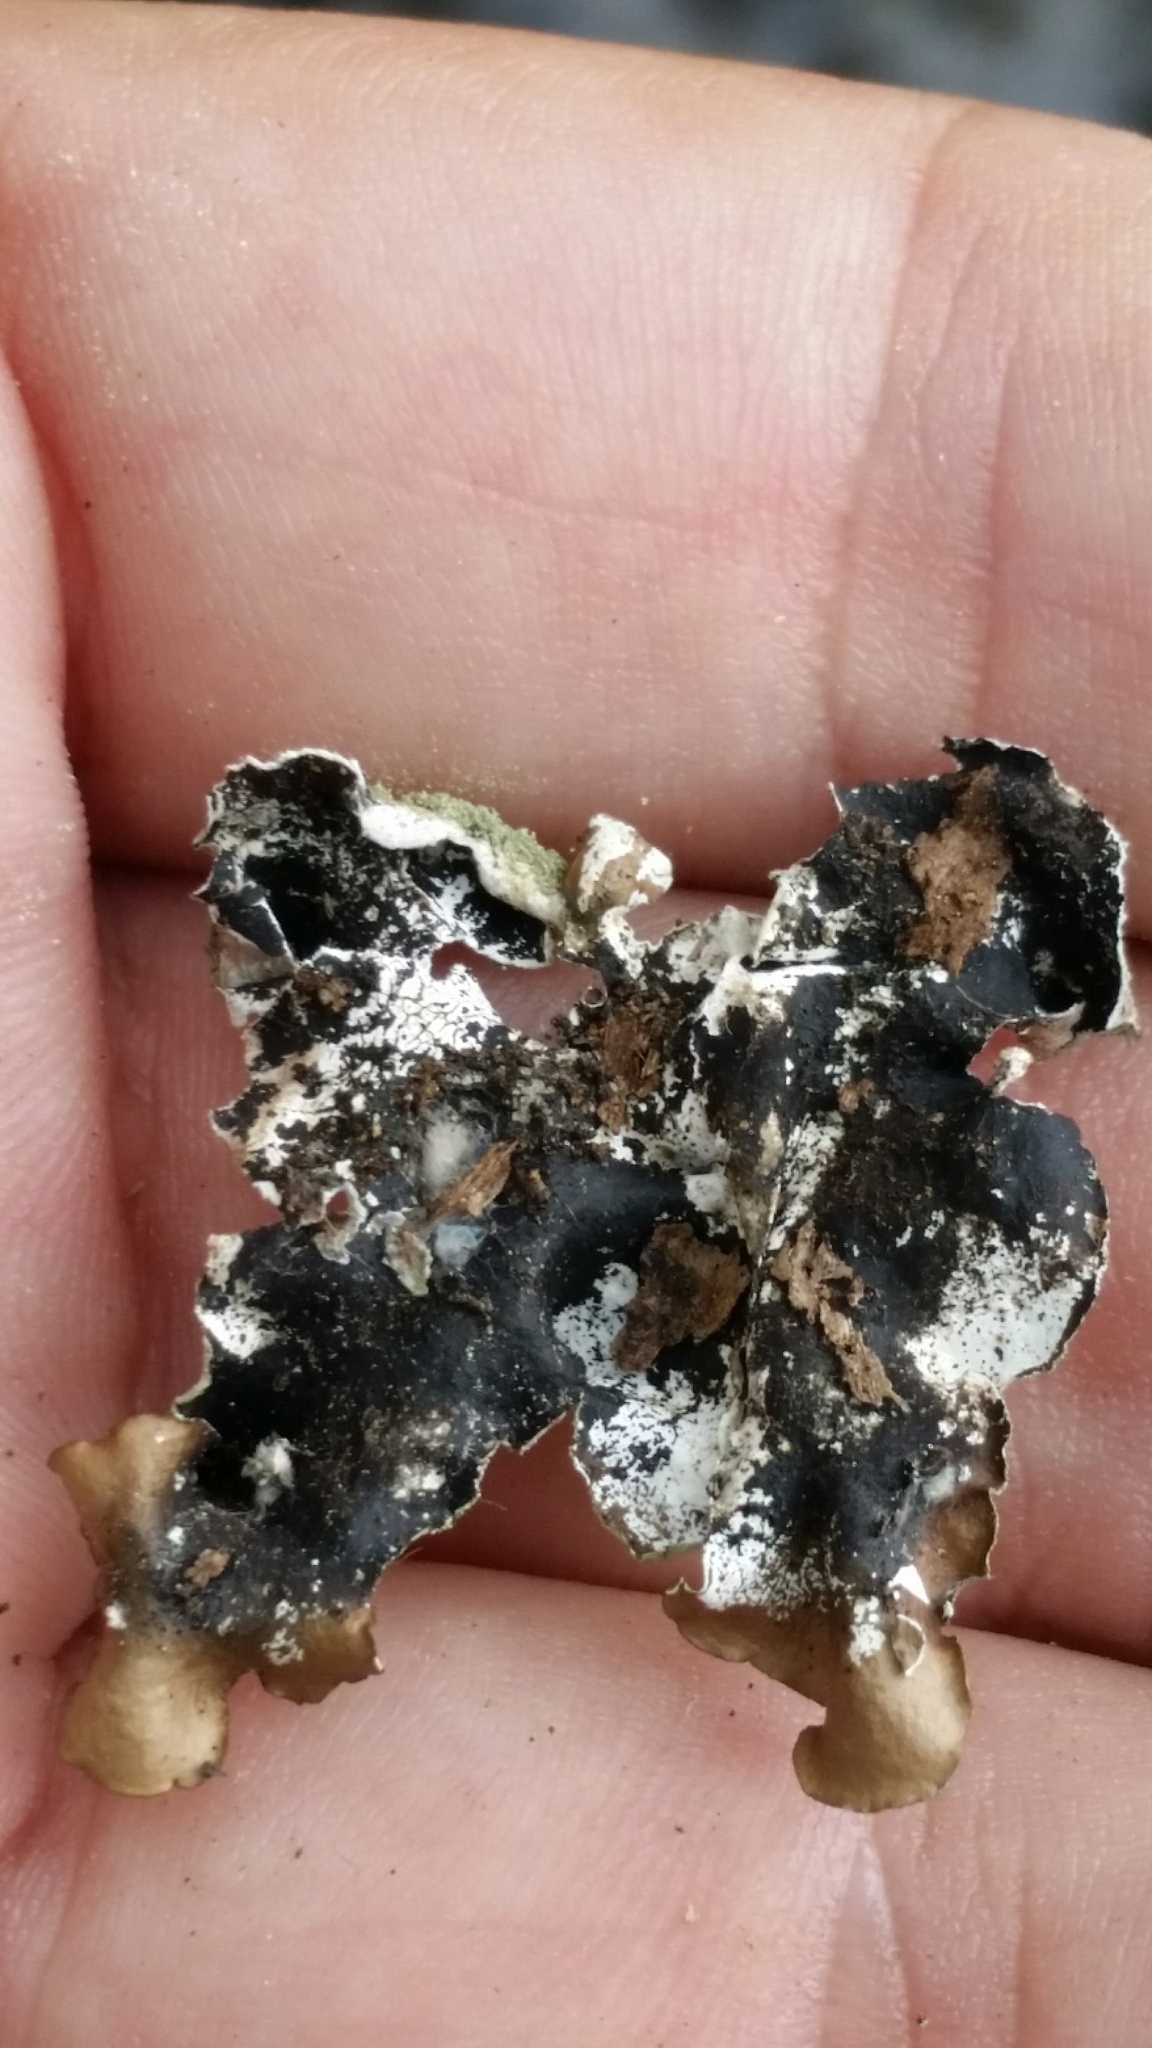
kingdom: Fungi
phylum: Ascomycota
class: Lecanoromycetes
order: Lecanorales
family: Parmeliaceae
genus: Parmotrema
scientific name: Parmotrema tinctorum
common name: Old gray ruffles
